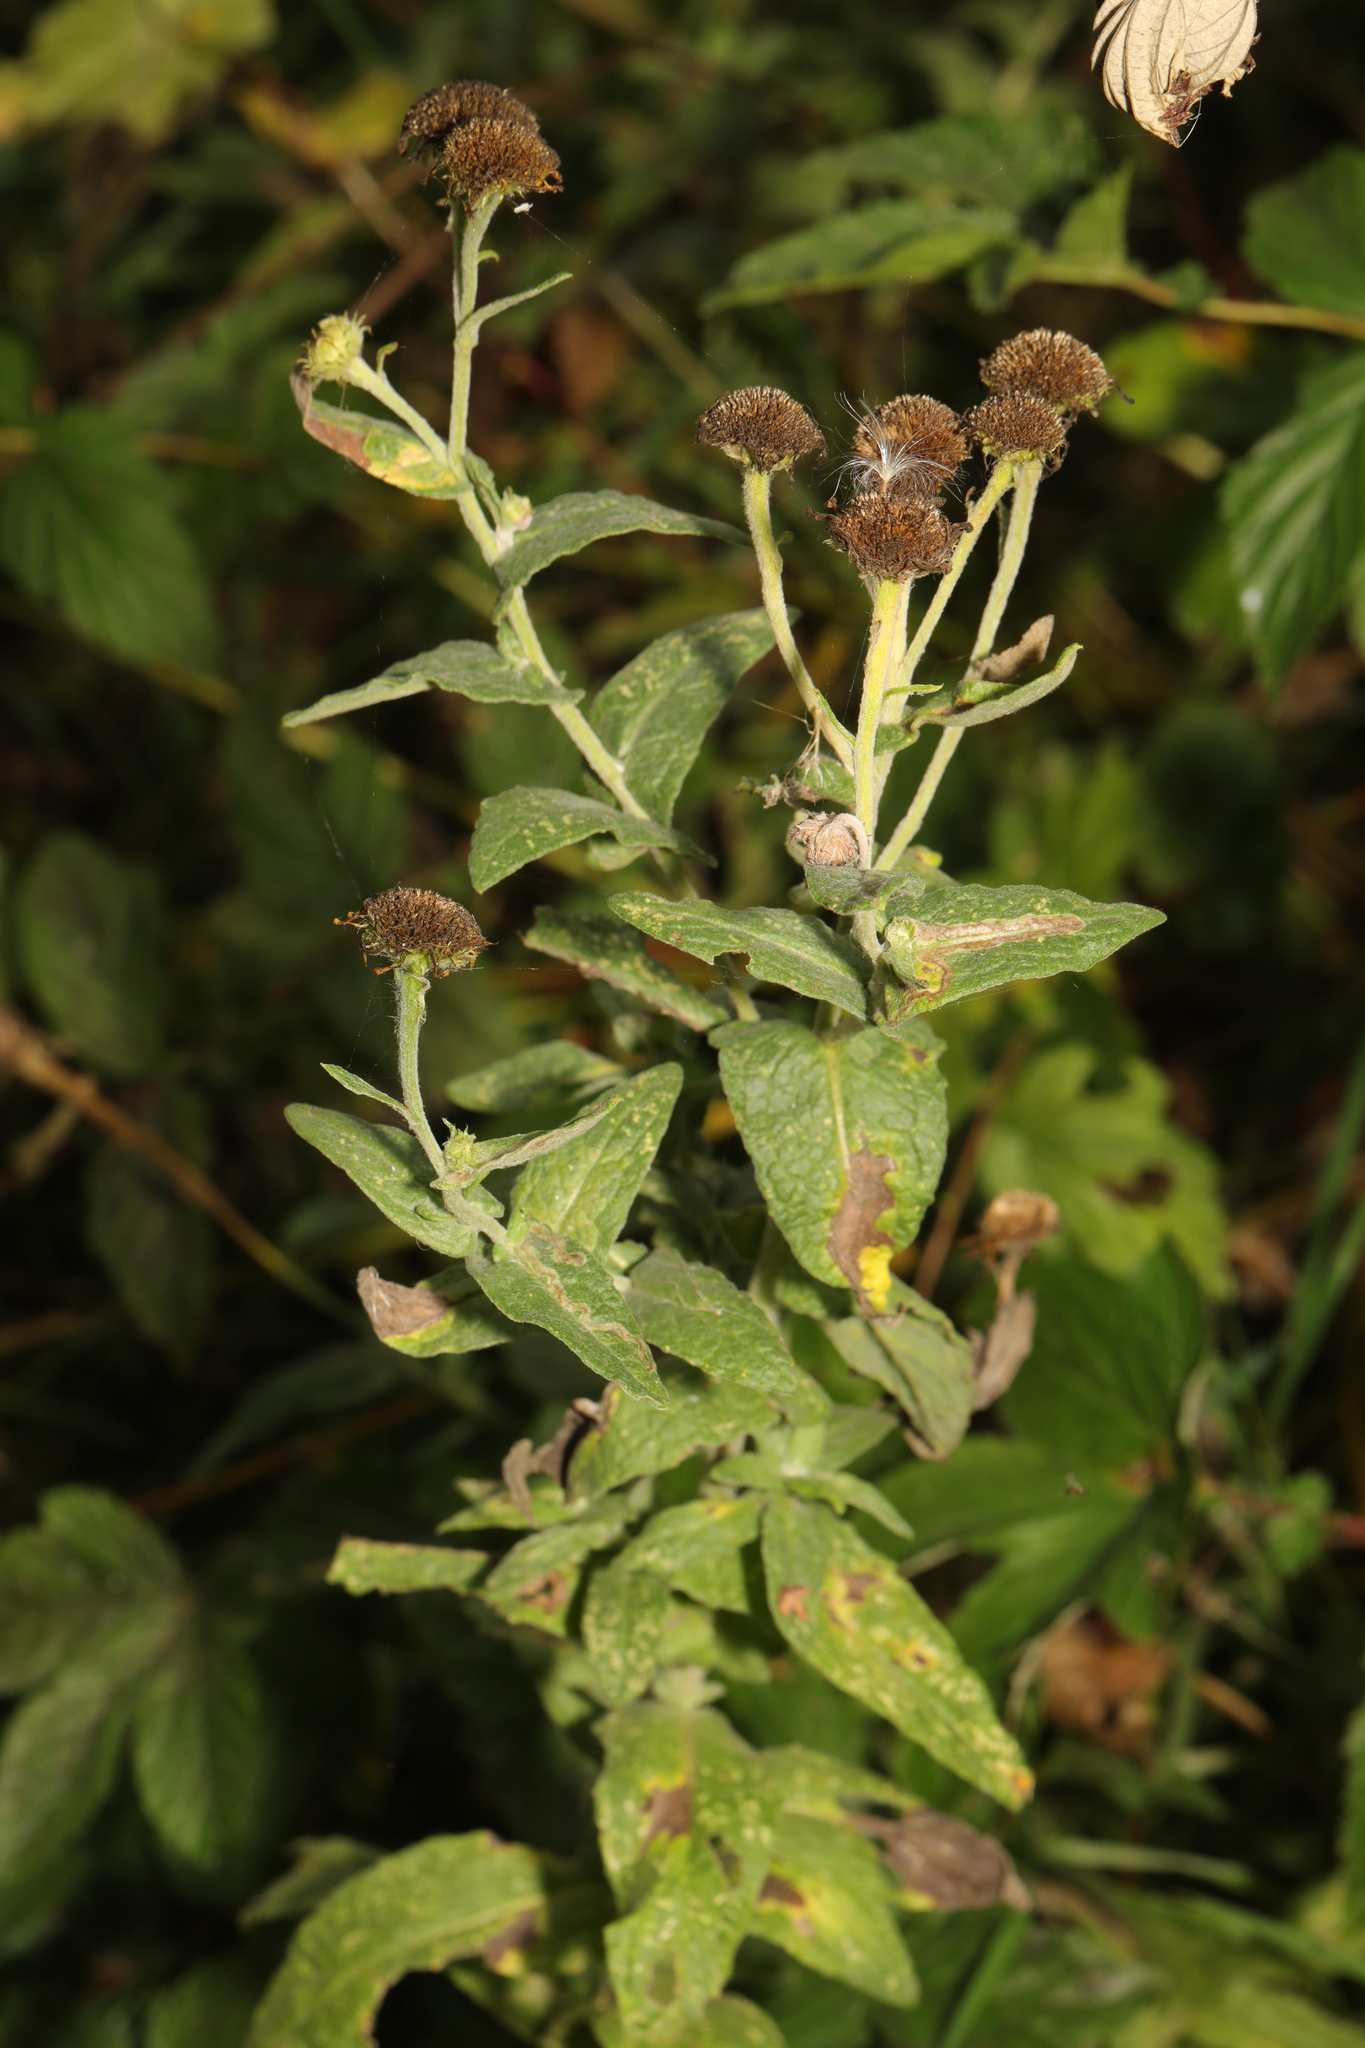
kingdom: Plantae
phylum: Tracheophyta
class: Magnoliopsida
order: Asterales
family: Asteraceae
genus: Pulicaria
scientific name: Pulicaria dysenterica
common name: Common fleabane
